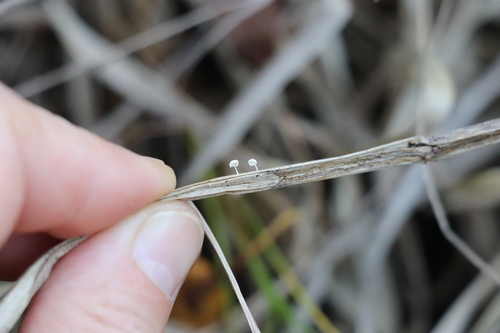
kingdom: Fungi
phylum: Basidiomycota
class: Agaricomycetes
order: Agaricales
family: Marasmiaceae
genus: Marasmius
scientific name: Marasmius
